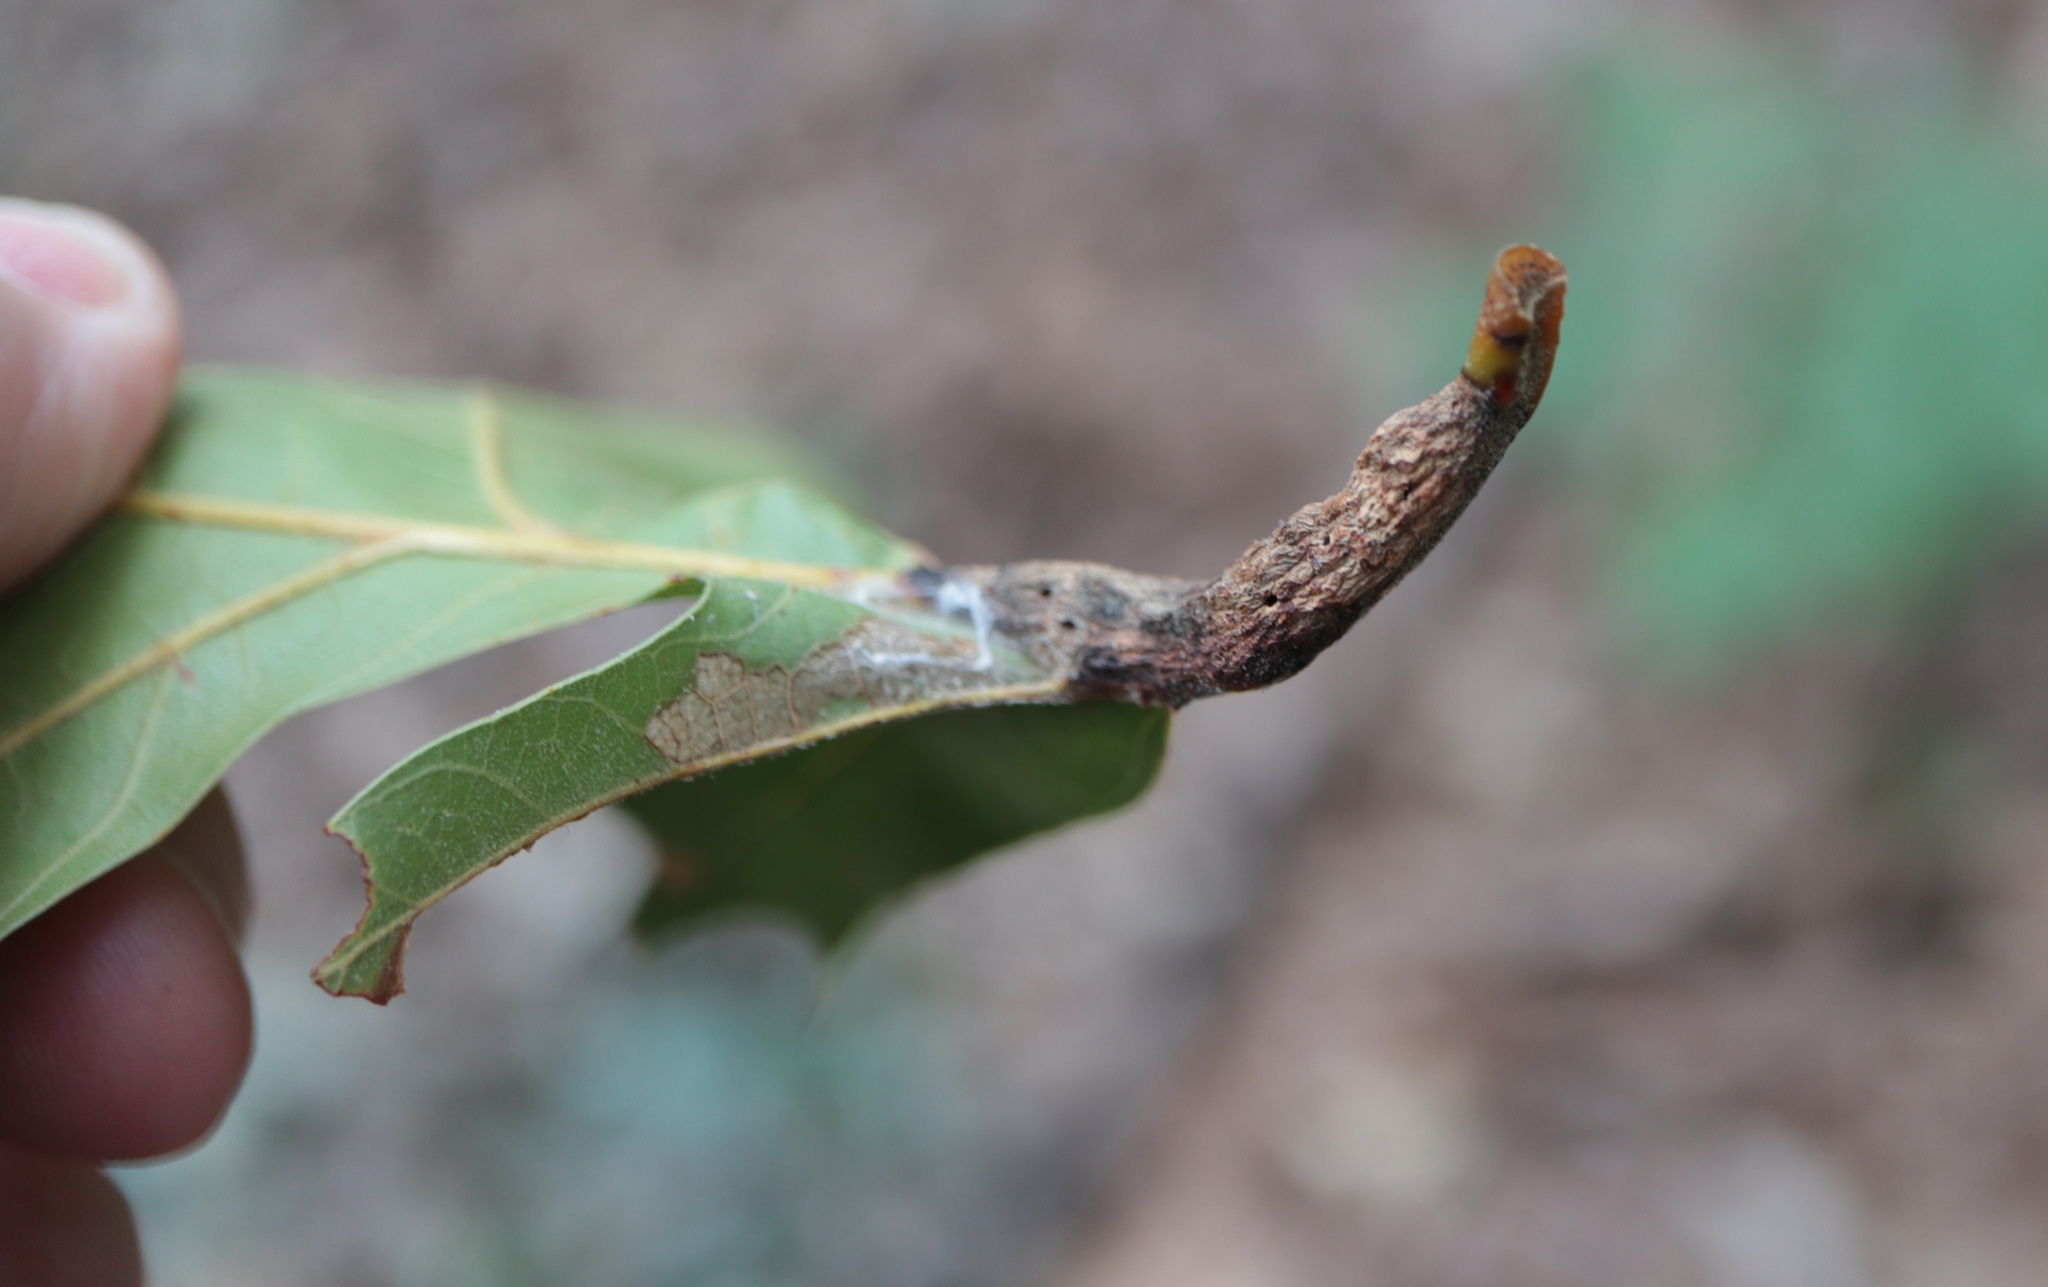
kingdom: Animalia
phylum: Arthropoda
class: Insecta
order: Hymenoptera
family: Cynipidae
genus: Melikaiella
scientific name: Melikaiella tumifica
